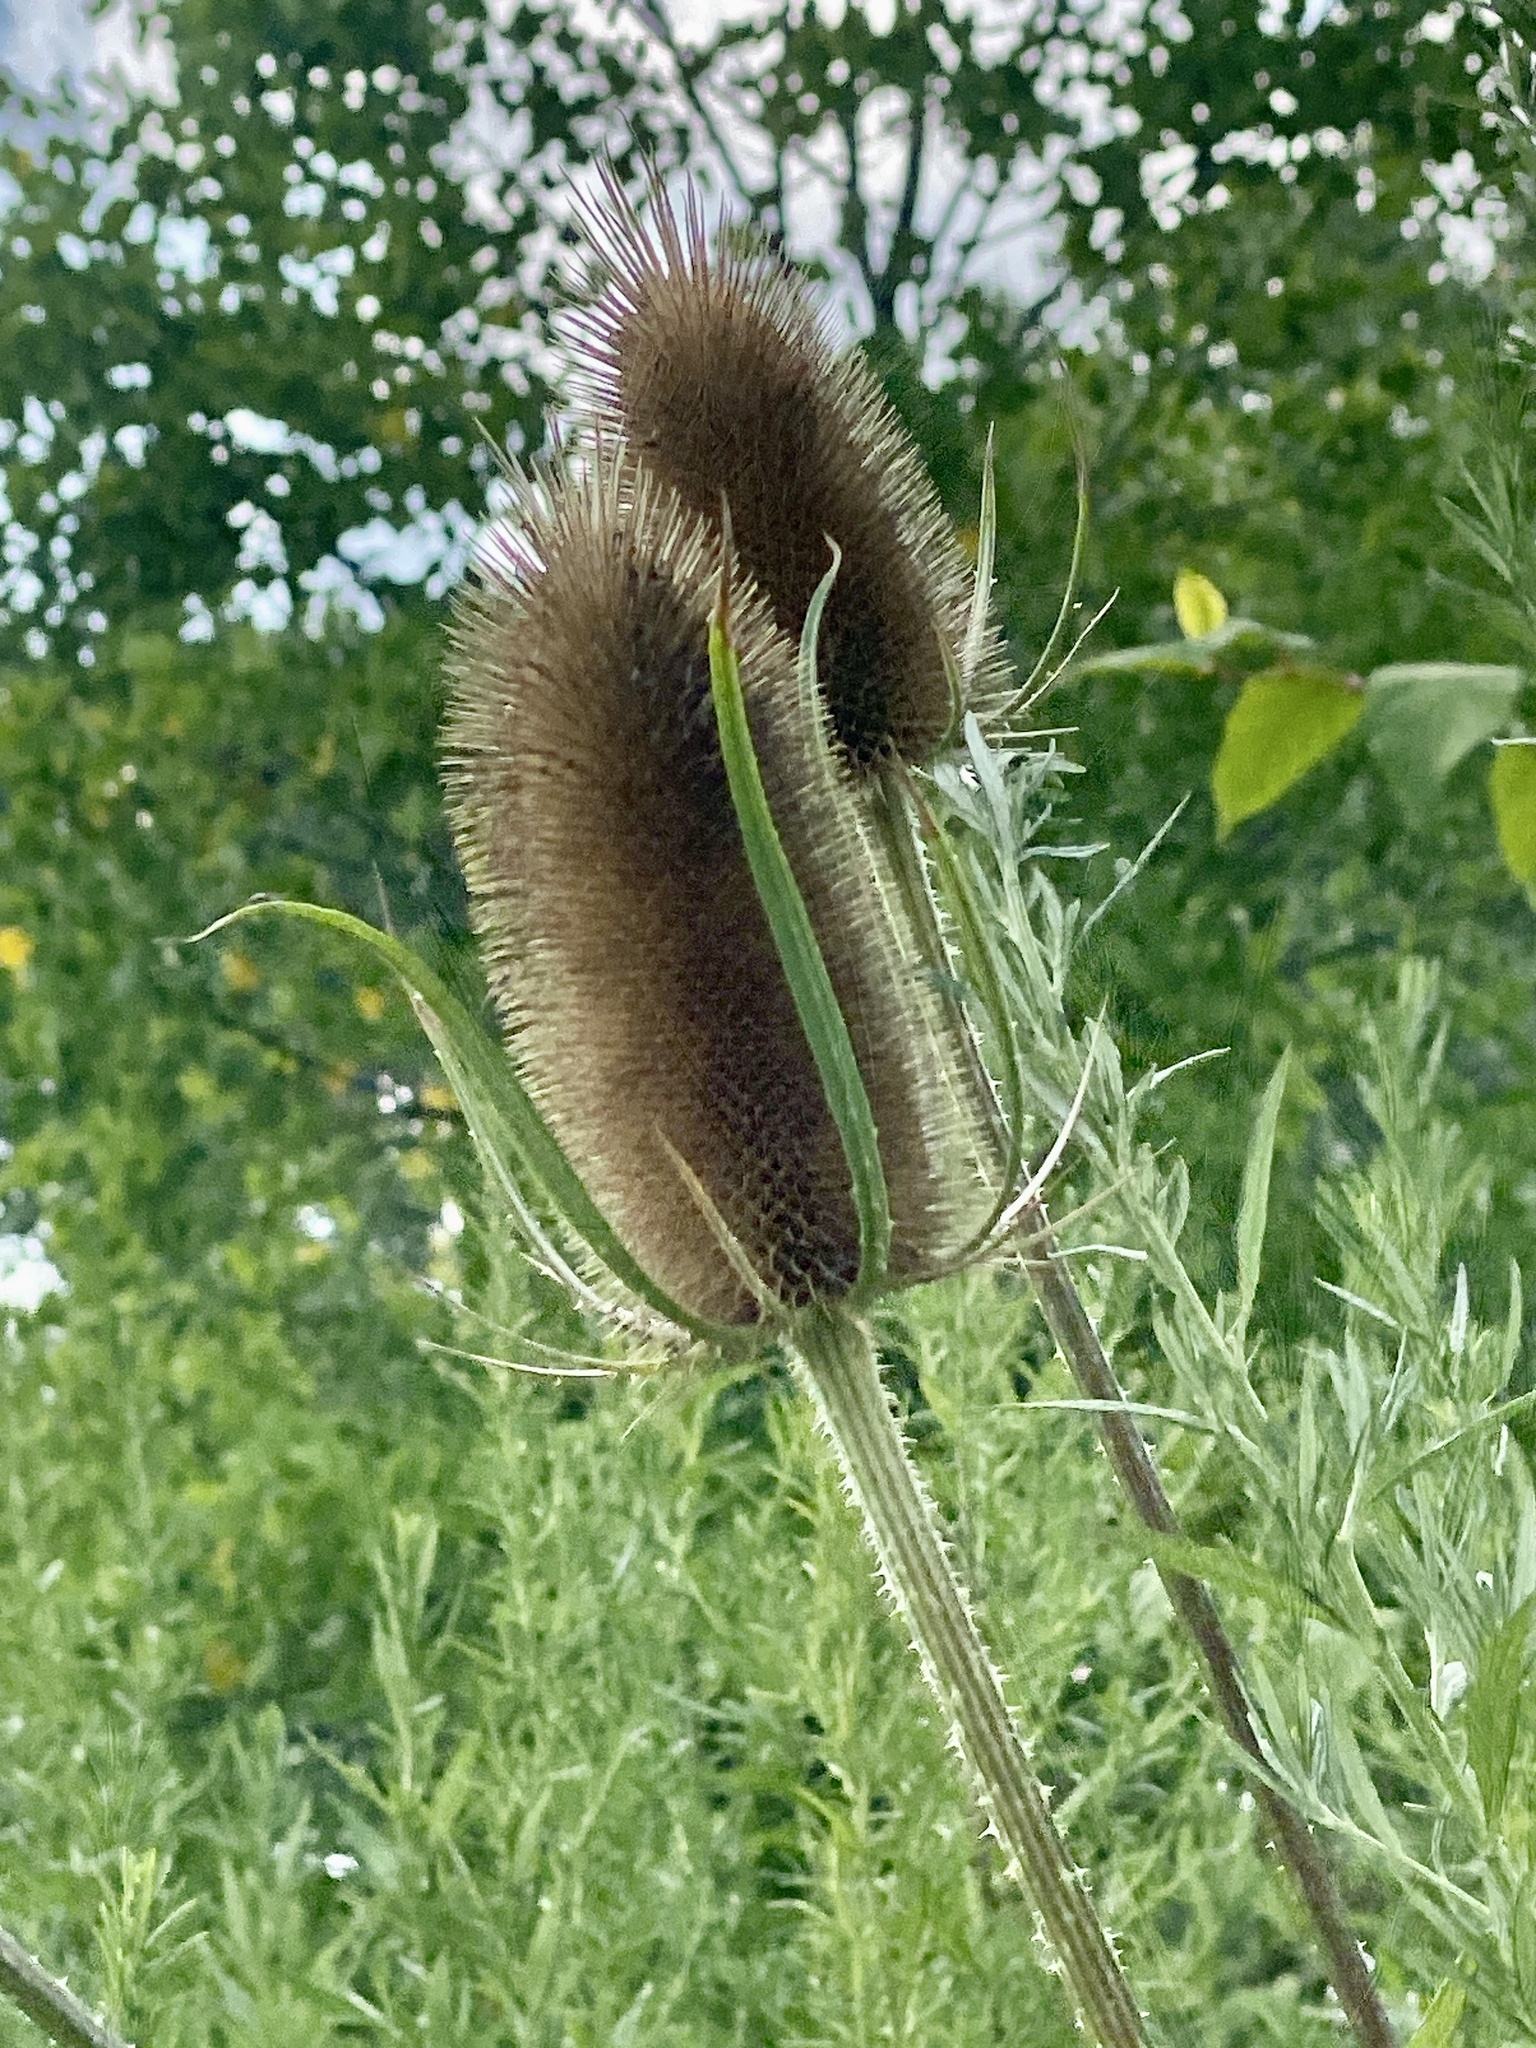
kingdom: Plantae
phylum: Tracheophyta
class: Magnoliopsida
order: Dipsacales
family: Caprifoliaceae
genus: Dipsacus
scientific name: Dipsacus fullonum
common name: Teasel
